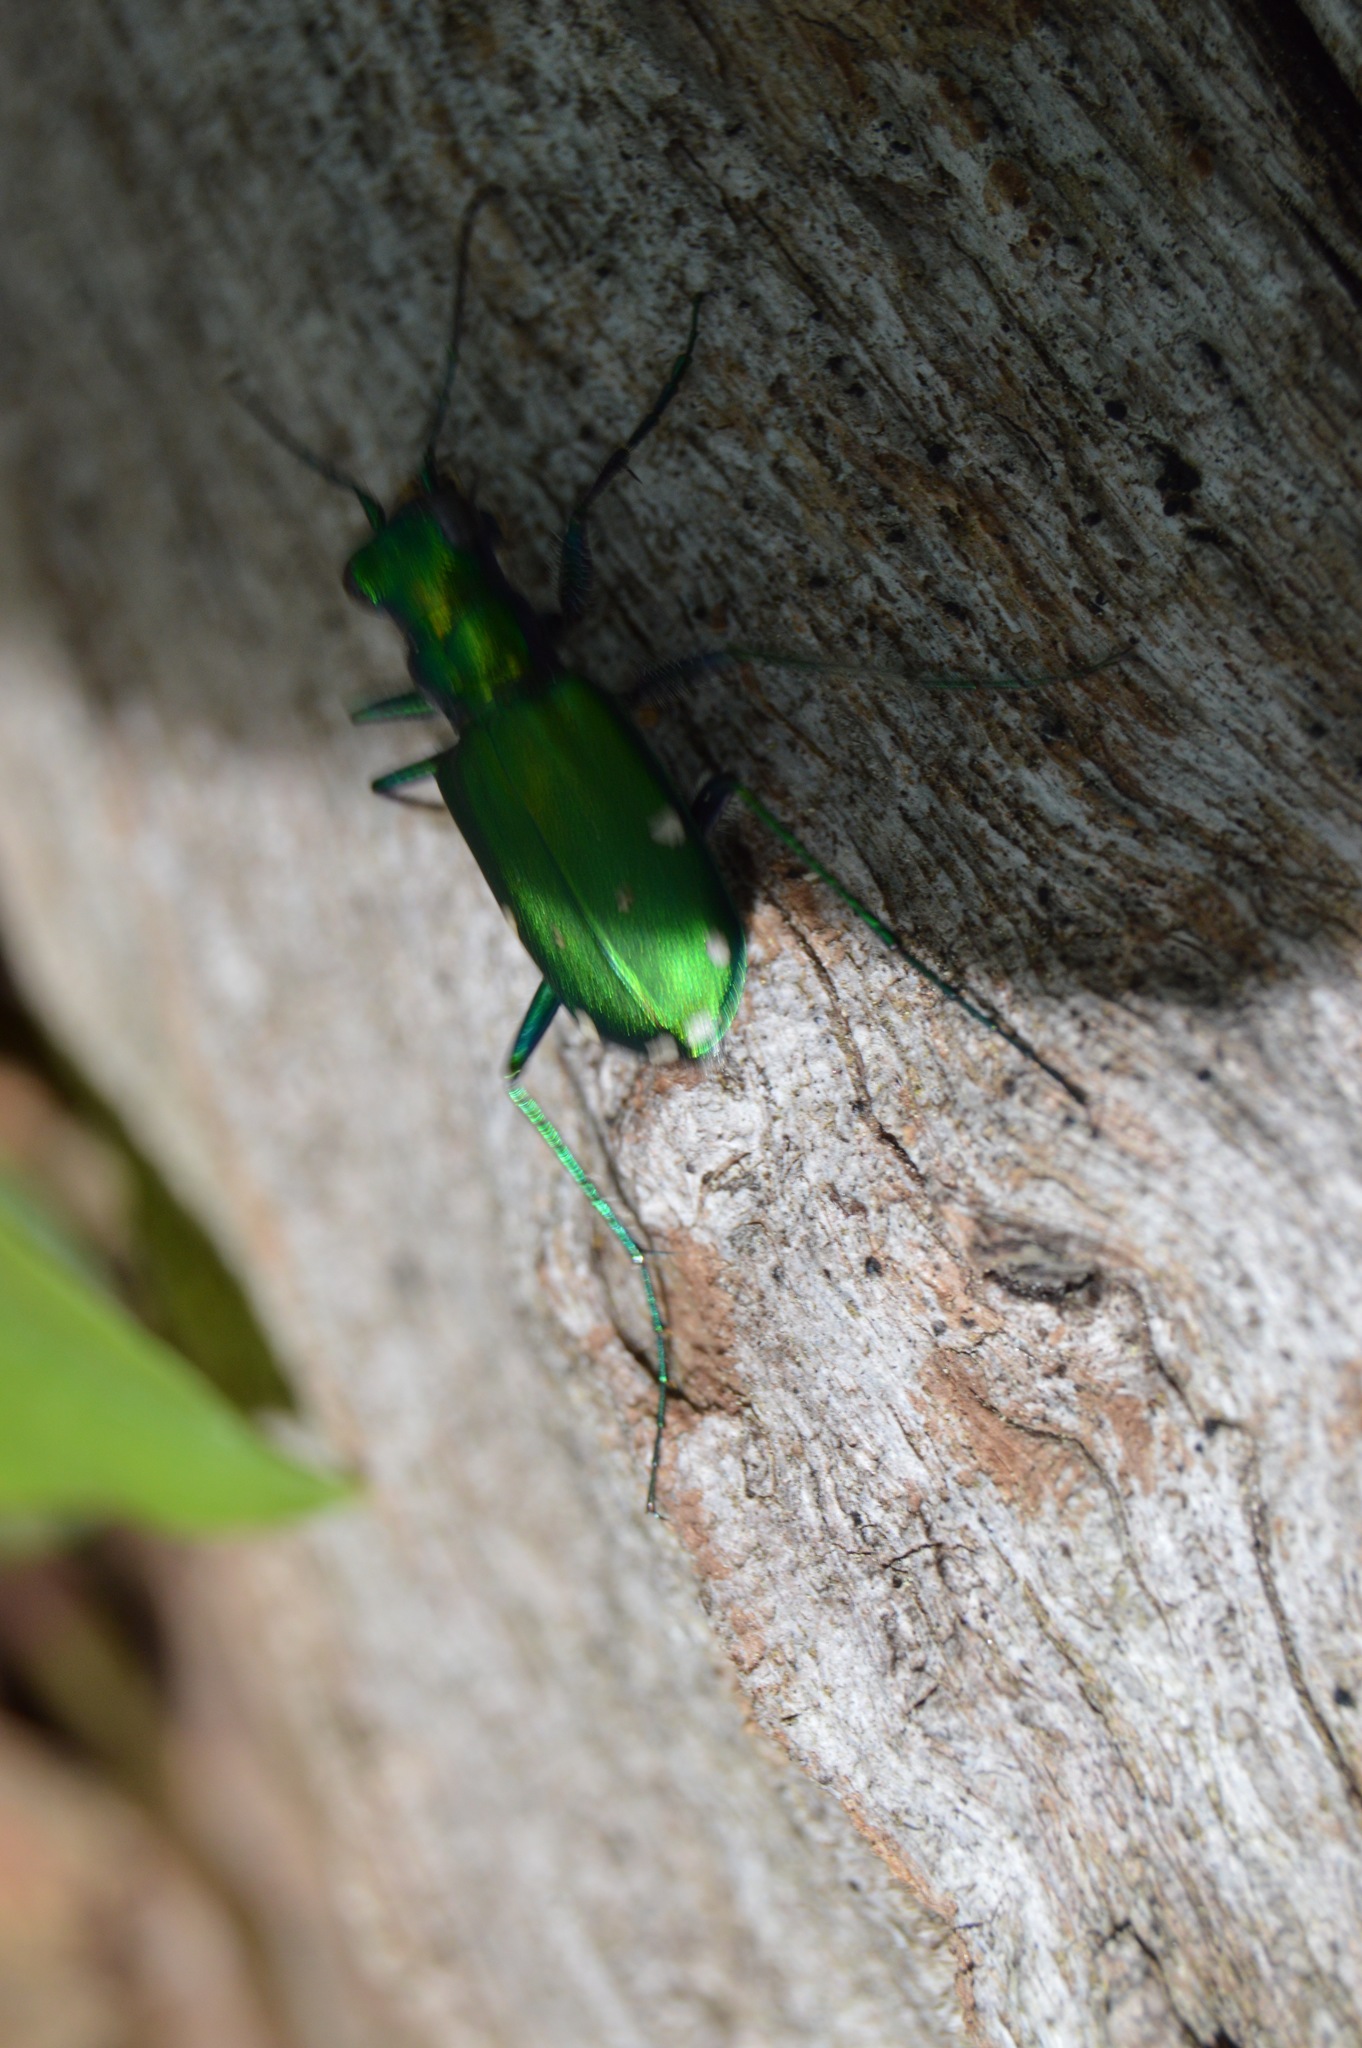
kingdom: Animalia
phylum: Arthropoda
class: Insecta
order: Coleoptera
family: Carabidae
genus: Cicindela
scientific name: Cicindela sexguttata
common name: Six-spotted tiger beetle
